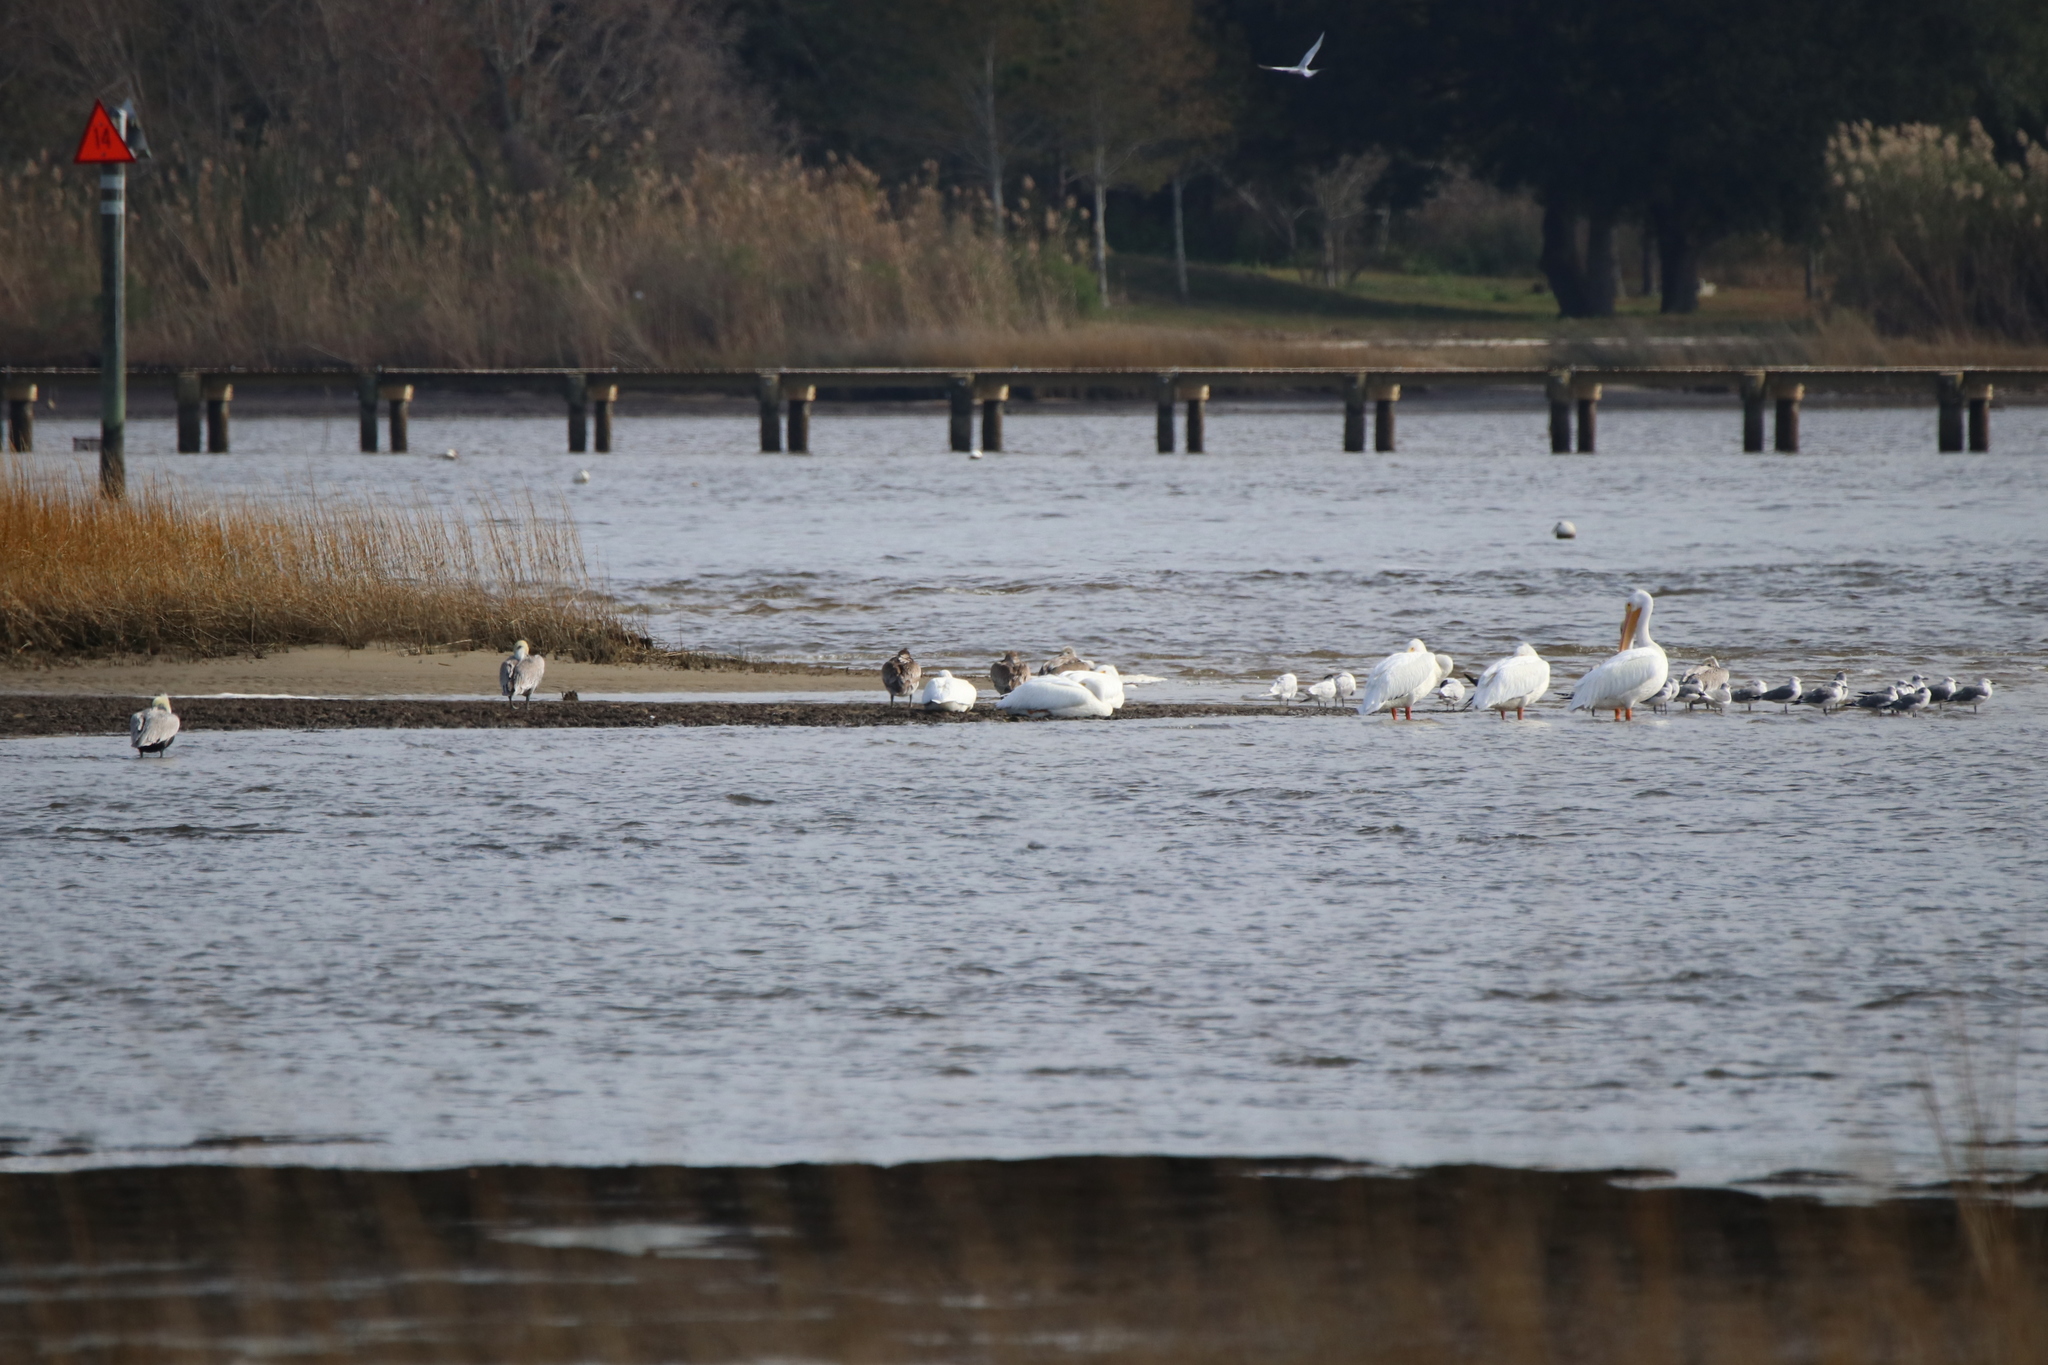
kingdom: Animalia
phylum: Chordata
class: Aves
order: Pelecaniformes
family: Pelecanidae
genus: Pelecanus
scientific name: Pelecanus erythrorhynchos
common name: American white pelican
